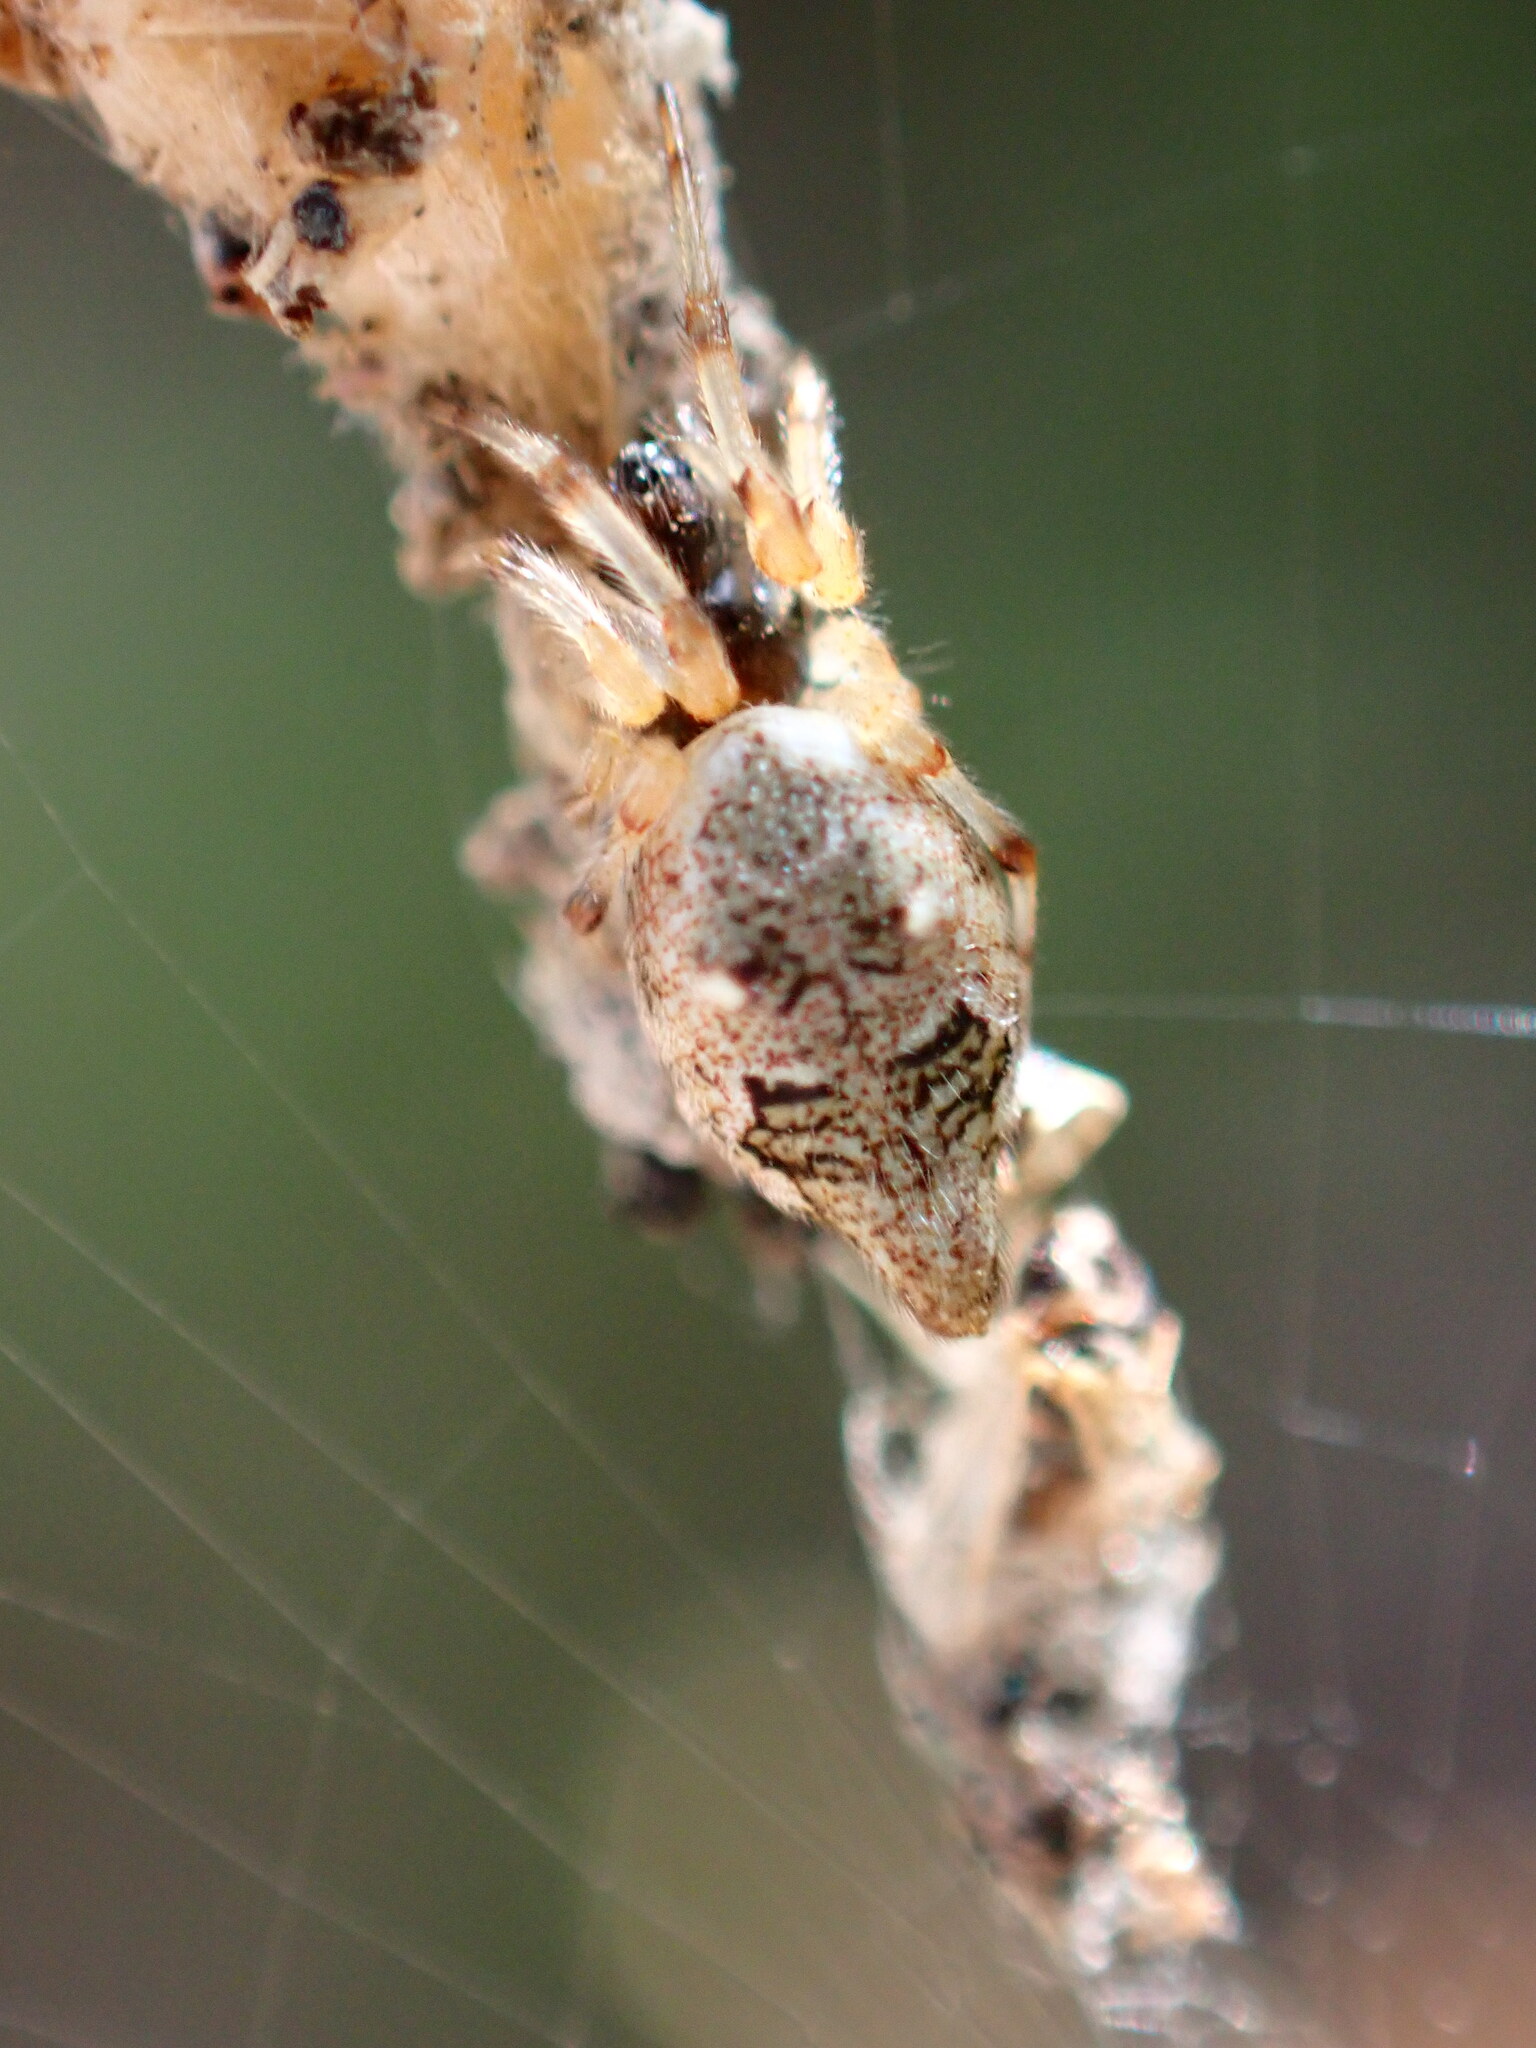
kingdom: Animalia
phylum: Arthropoda
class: Arachnida
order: Araneae
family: Araneidae
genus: Cyclosa
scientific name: Cyclosa turbinata
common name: Orb weavers
